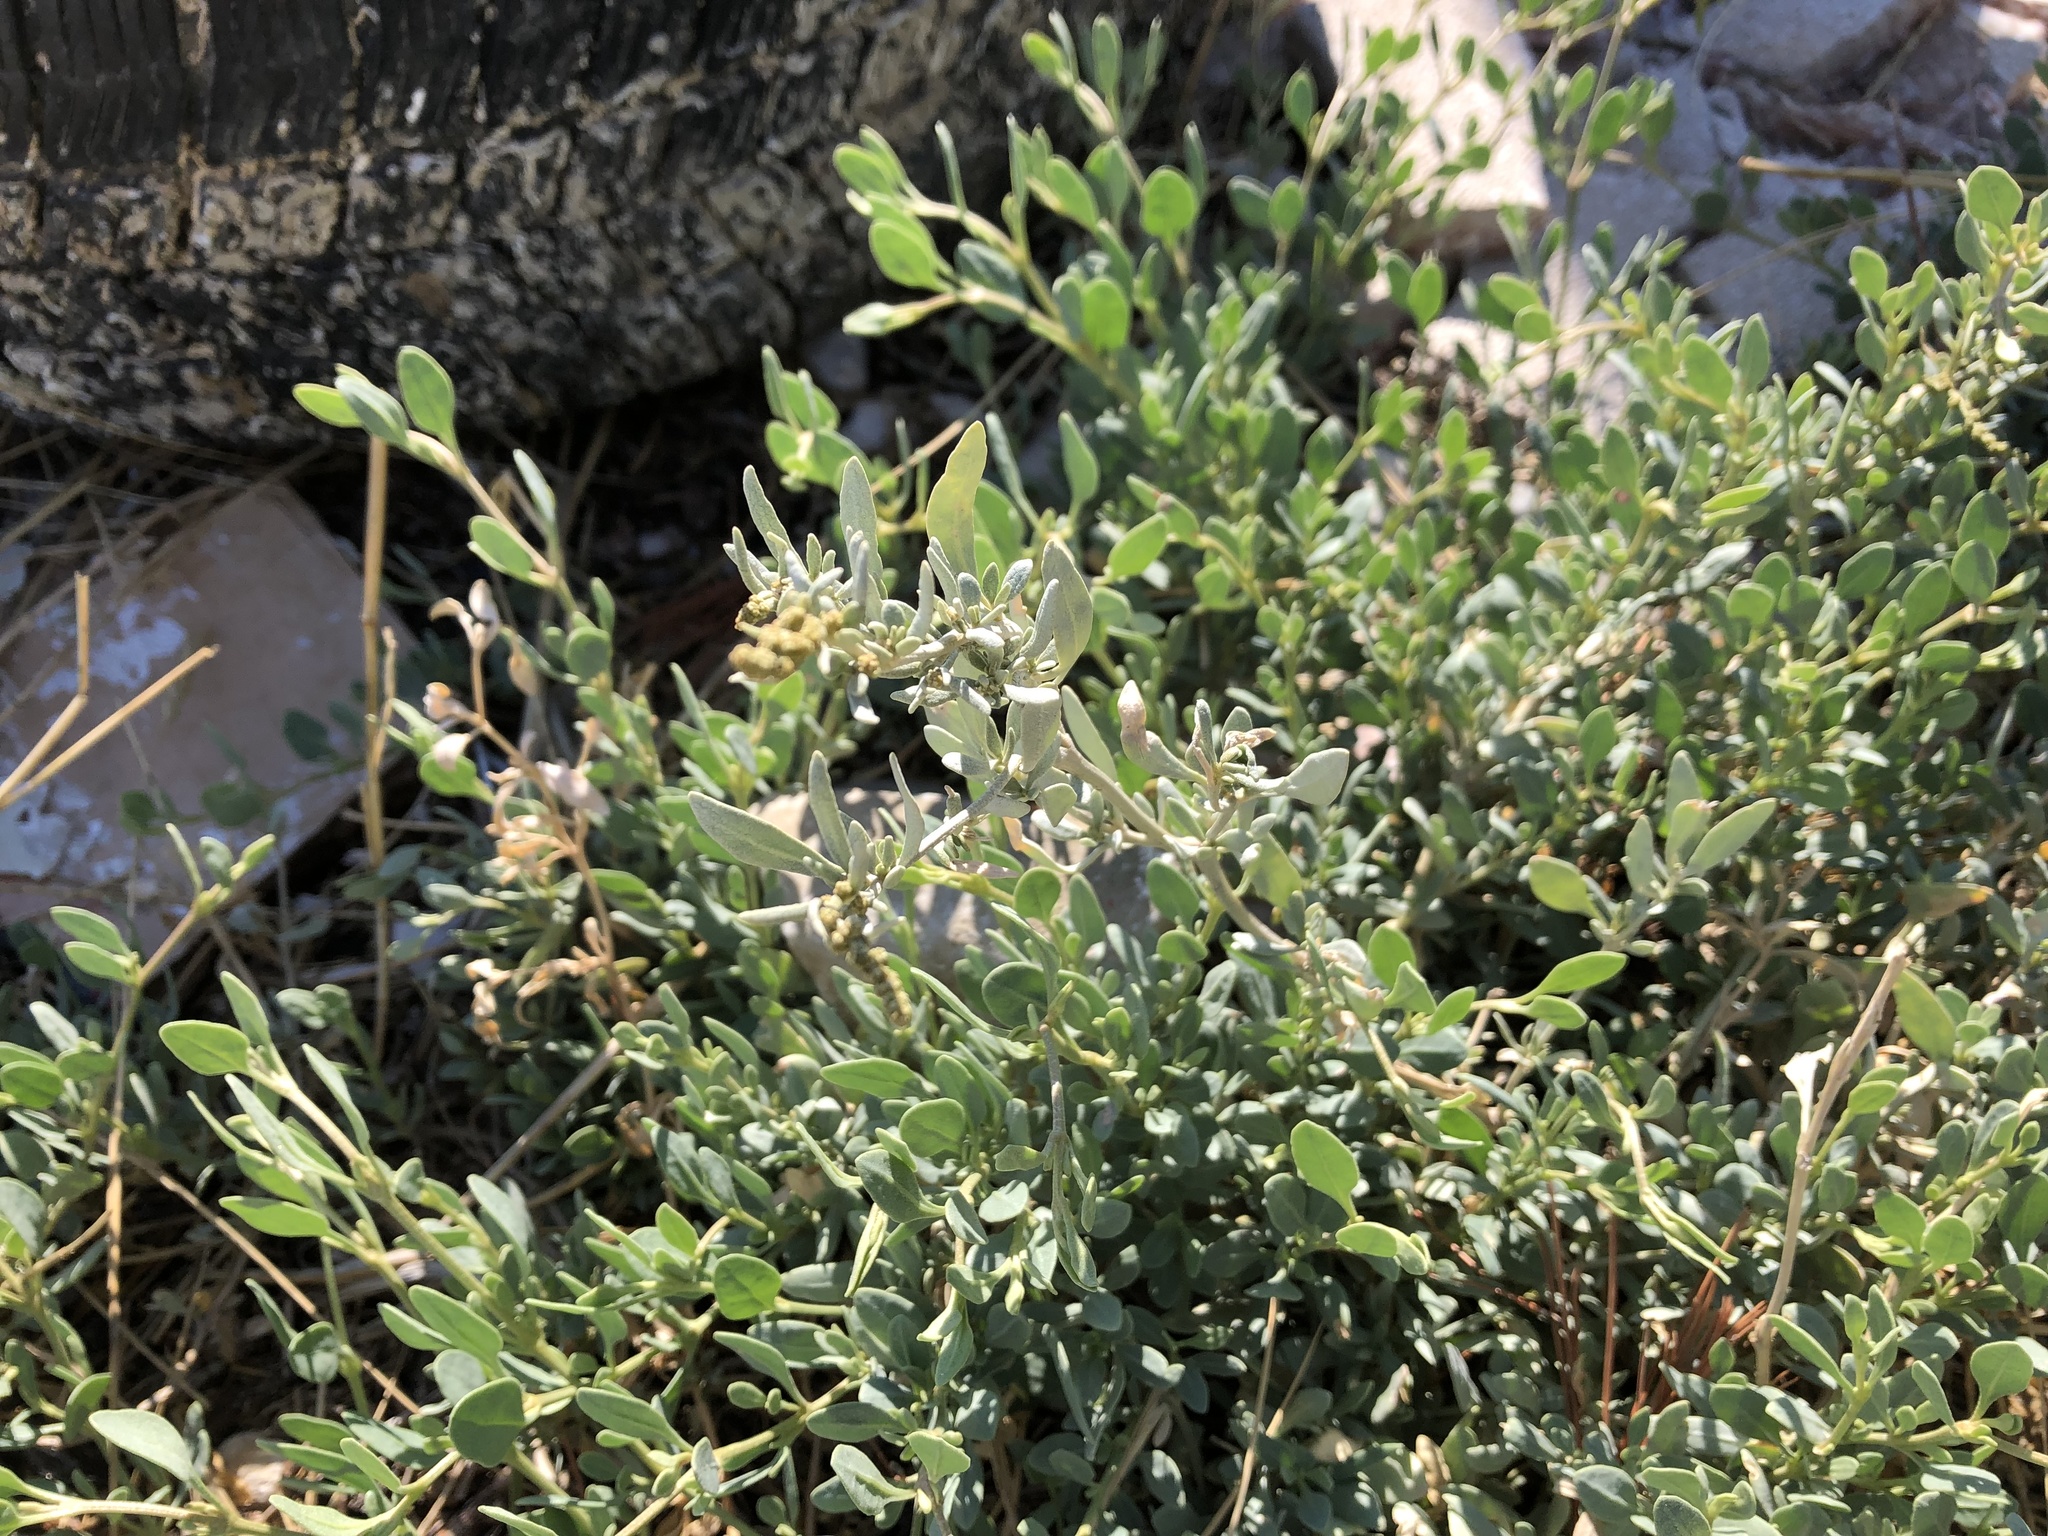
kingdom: Plantae
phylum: Tracheophyta
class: Magnoliopsida
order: Caryophyllales
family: Amaranthaceae
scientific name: Amaranthaceae
